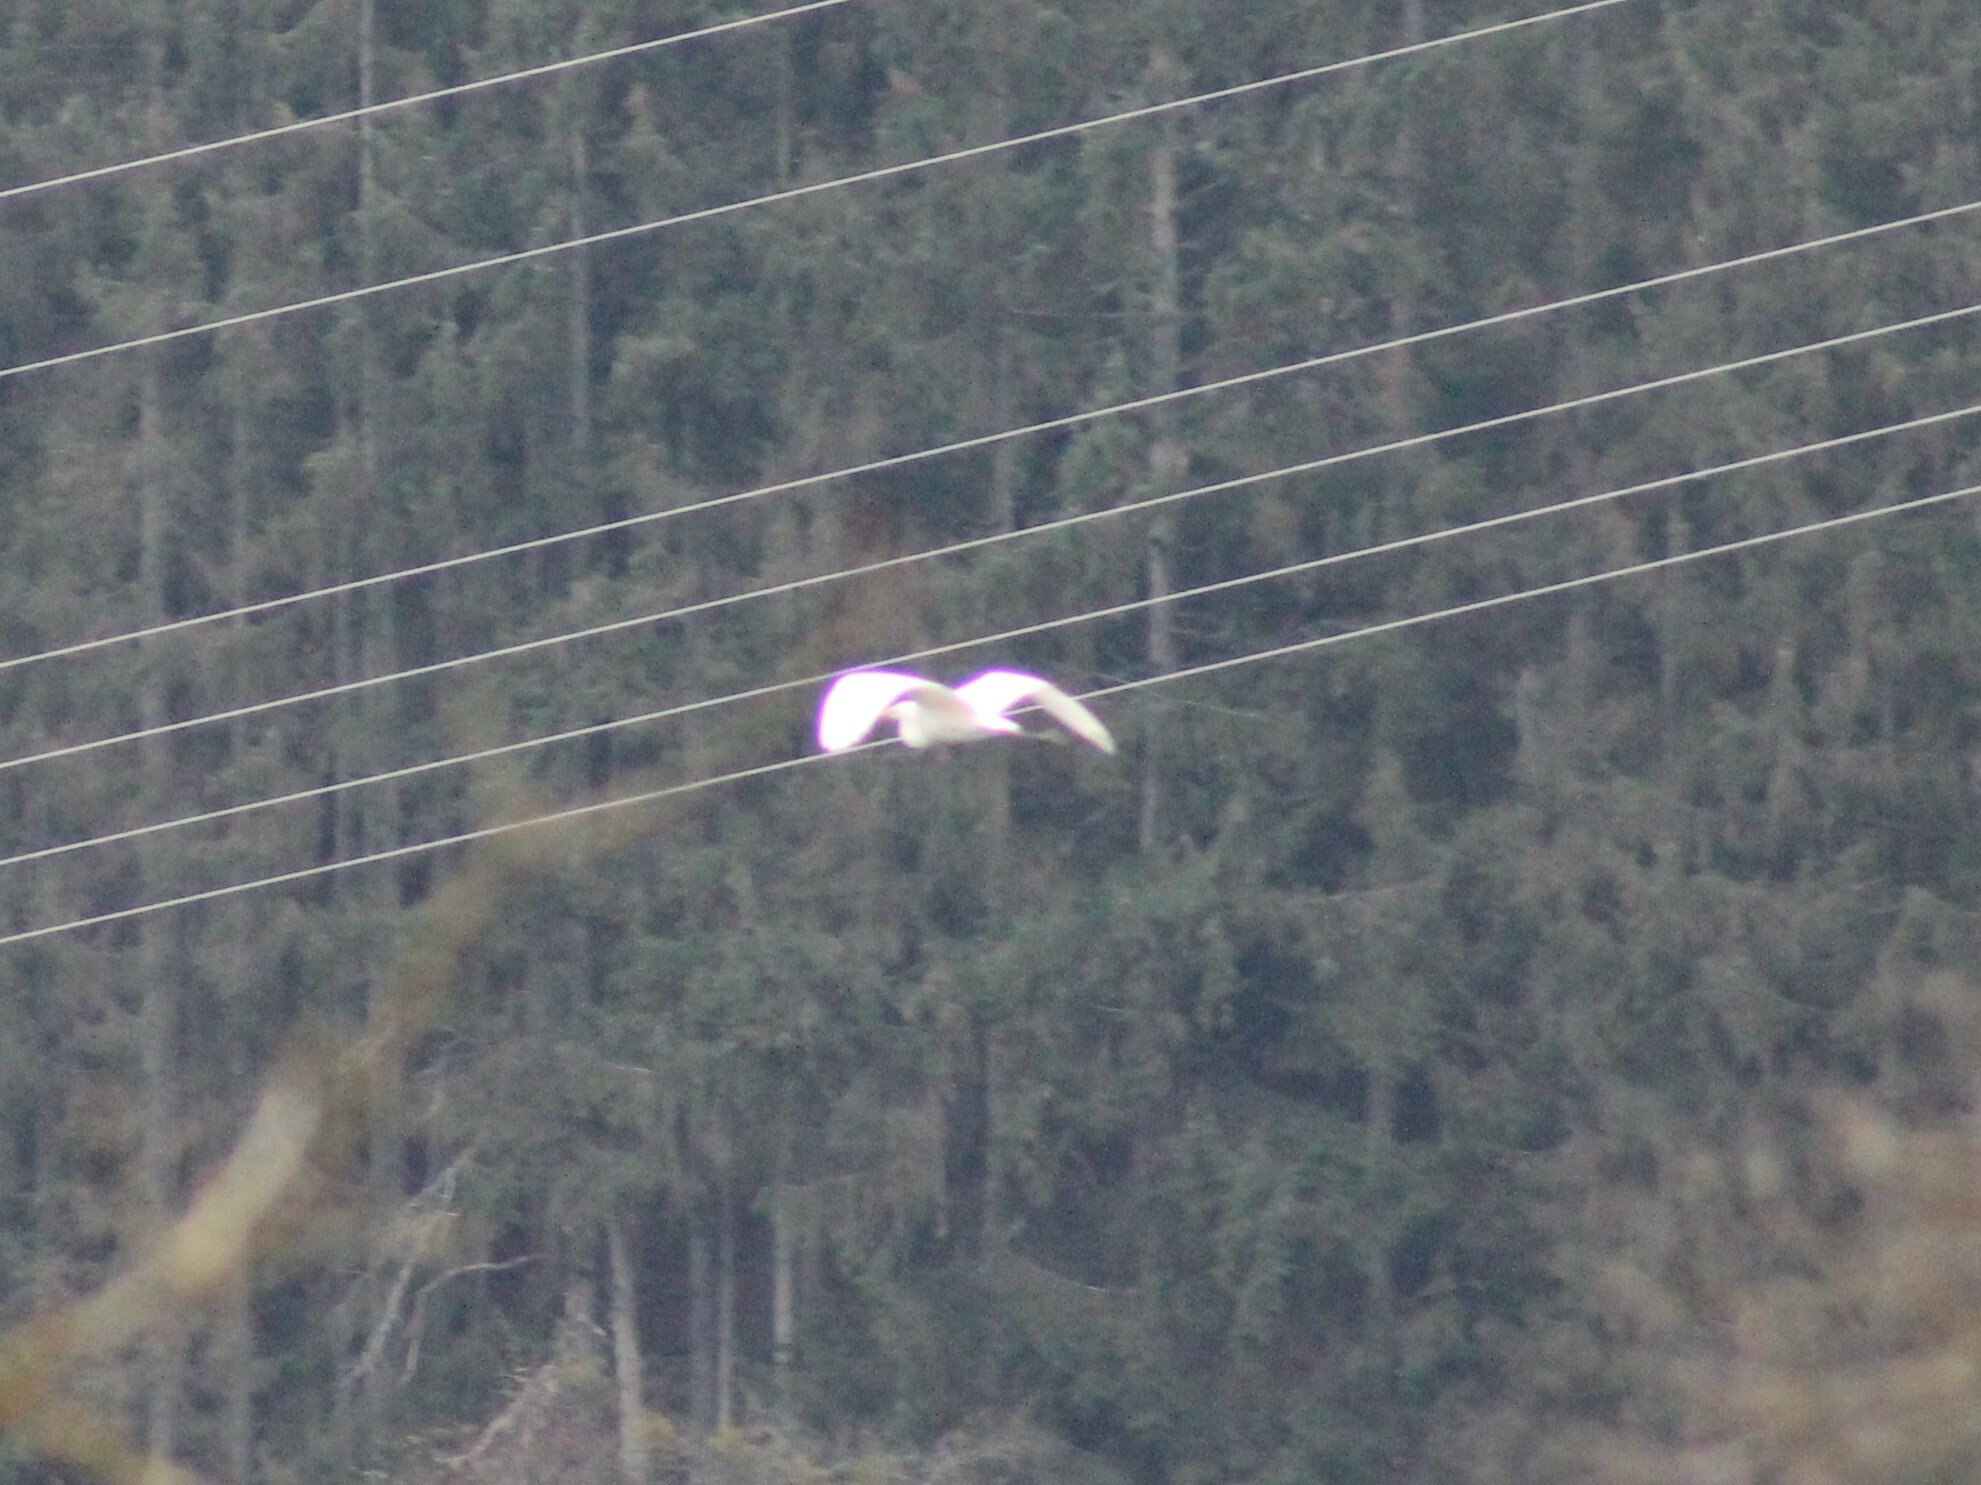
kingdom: Animalia
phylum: Chordata
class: Aves
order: Pelecaniformes
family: Ardeidae
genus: Ardea
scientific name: Ardea alba
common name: Great egret
